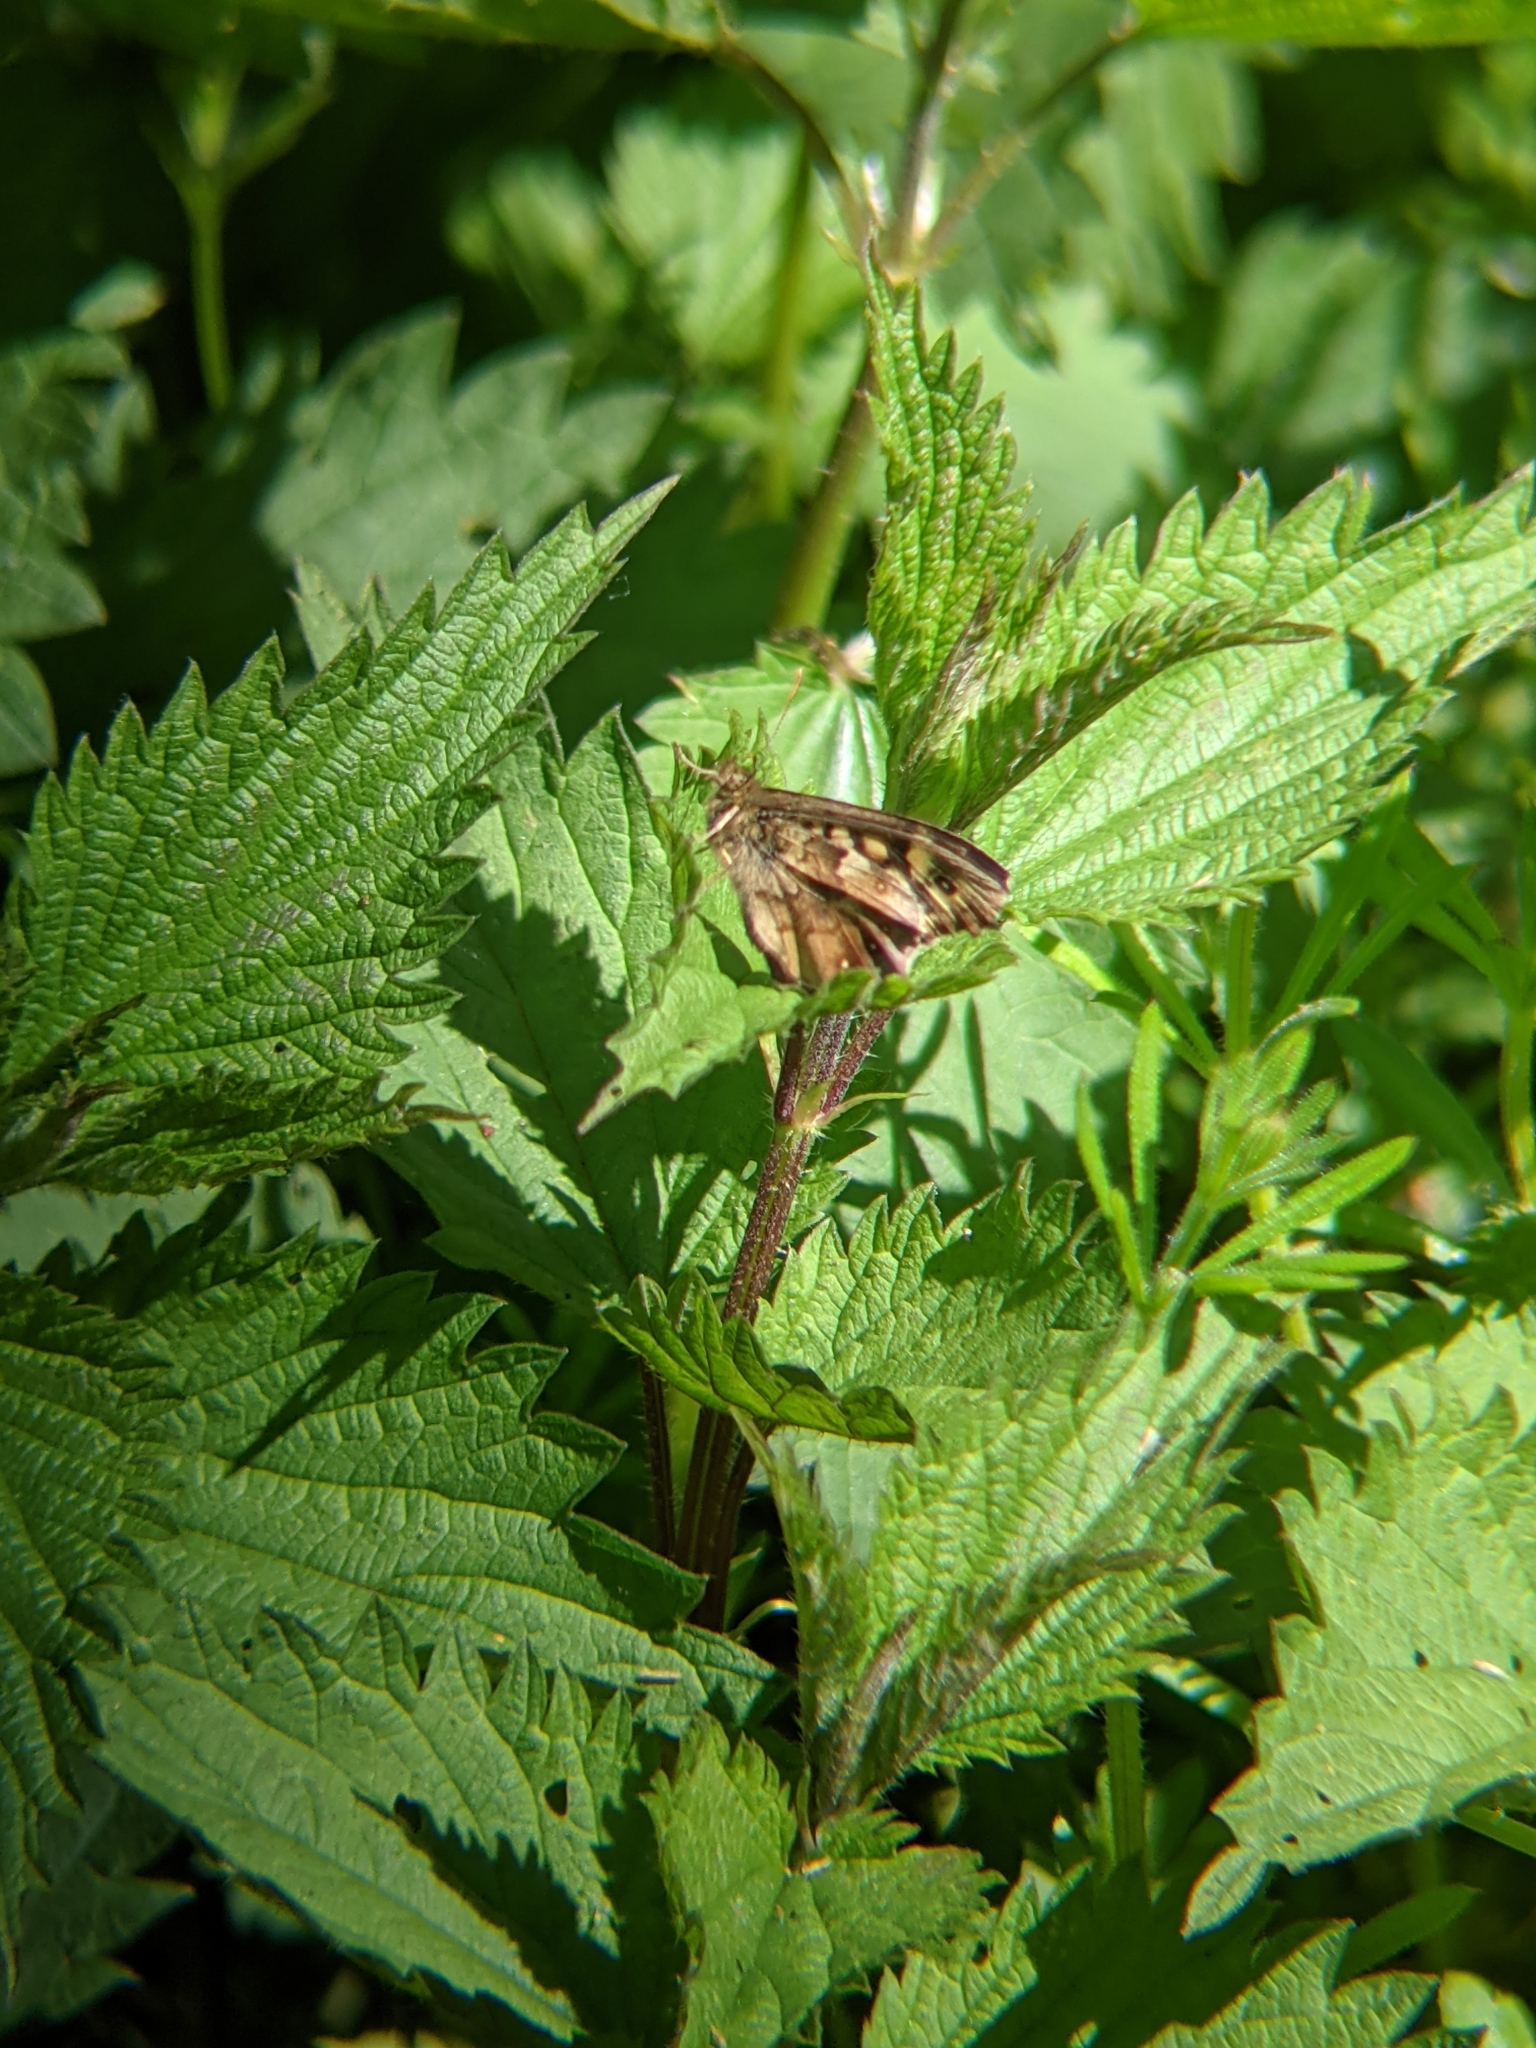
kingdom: Animalia
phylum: Arthropoda
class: Insecta
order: Lepidoptera
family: Nymphalidae
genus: Pararge
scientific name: Pararge aegeria
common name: Speckled wood
